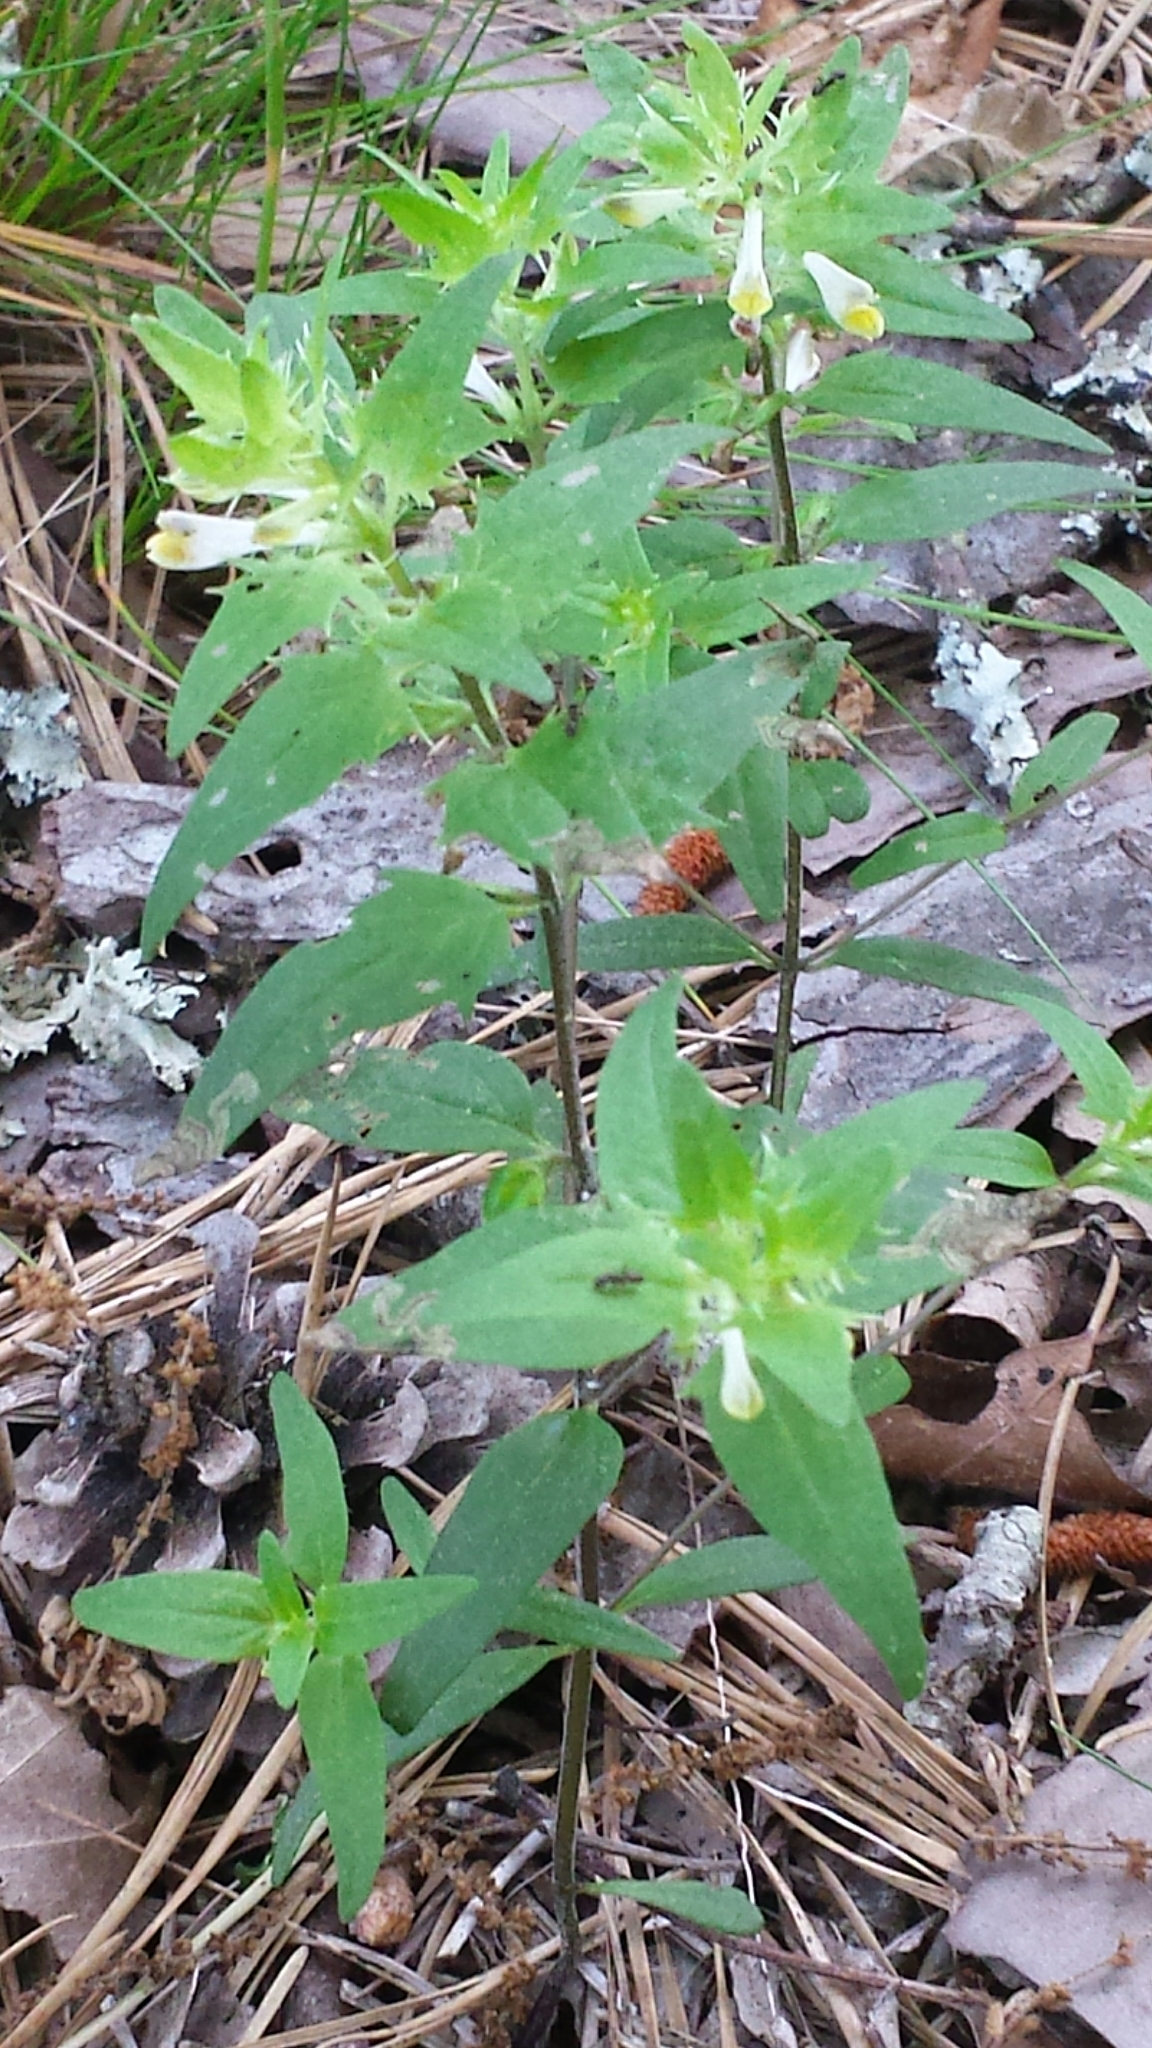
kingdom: Plantae
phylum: Tracheophyta
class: Magnoliopsida
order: Lamiales
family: Orobanchaceae
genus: Melampyrum
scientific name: Melampyrum lineare
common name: American cow-wheat
